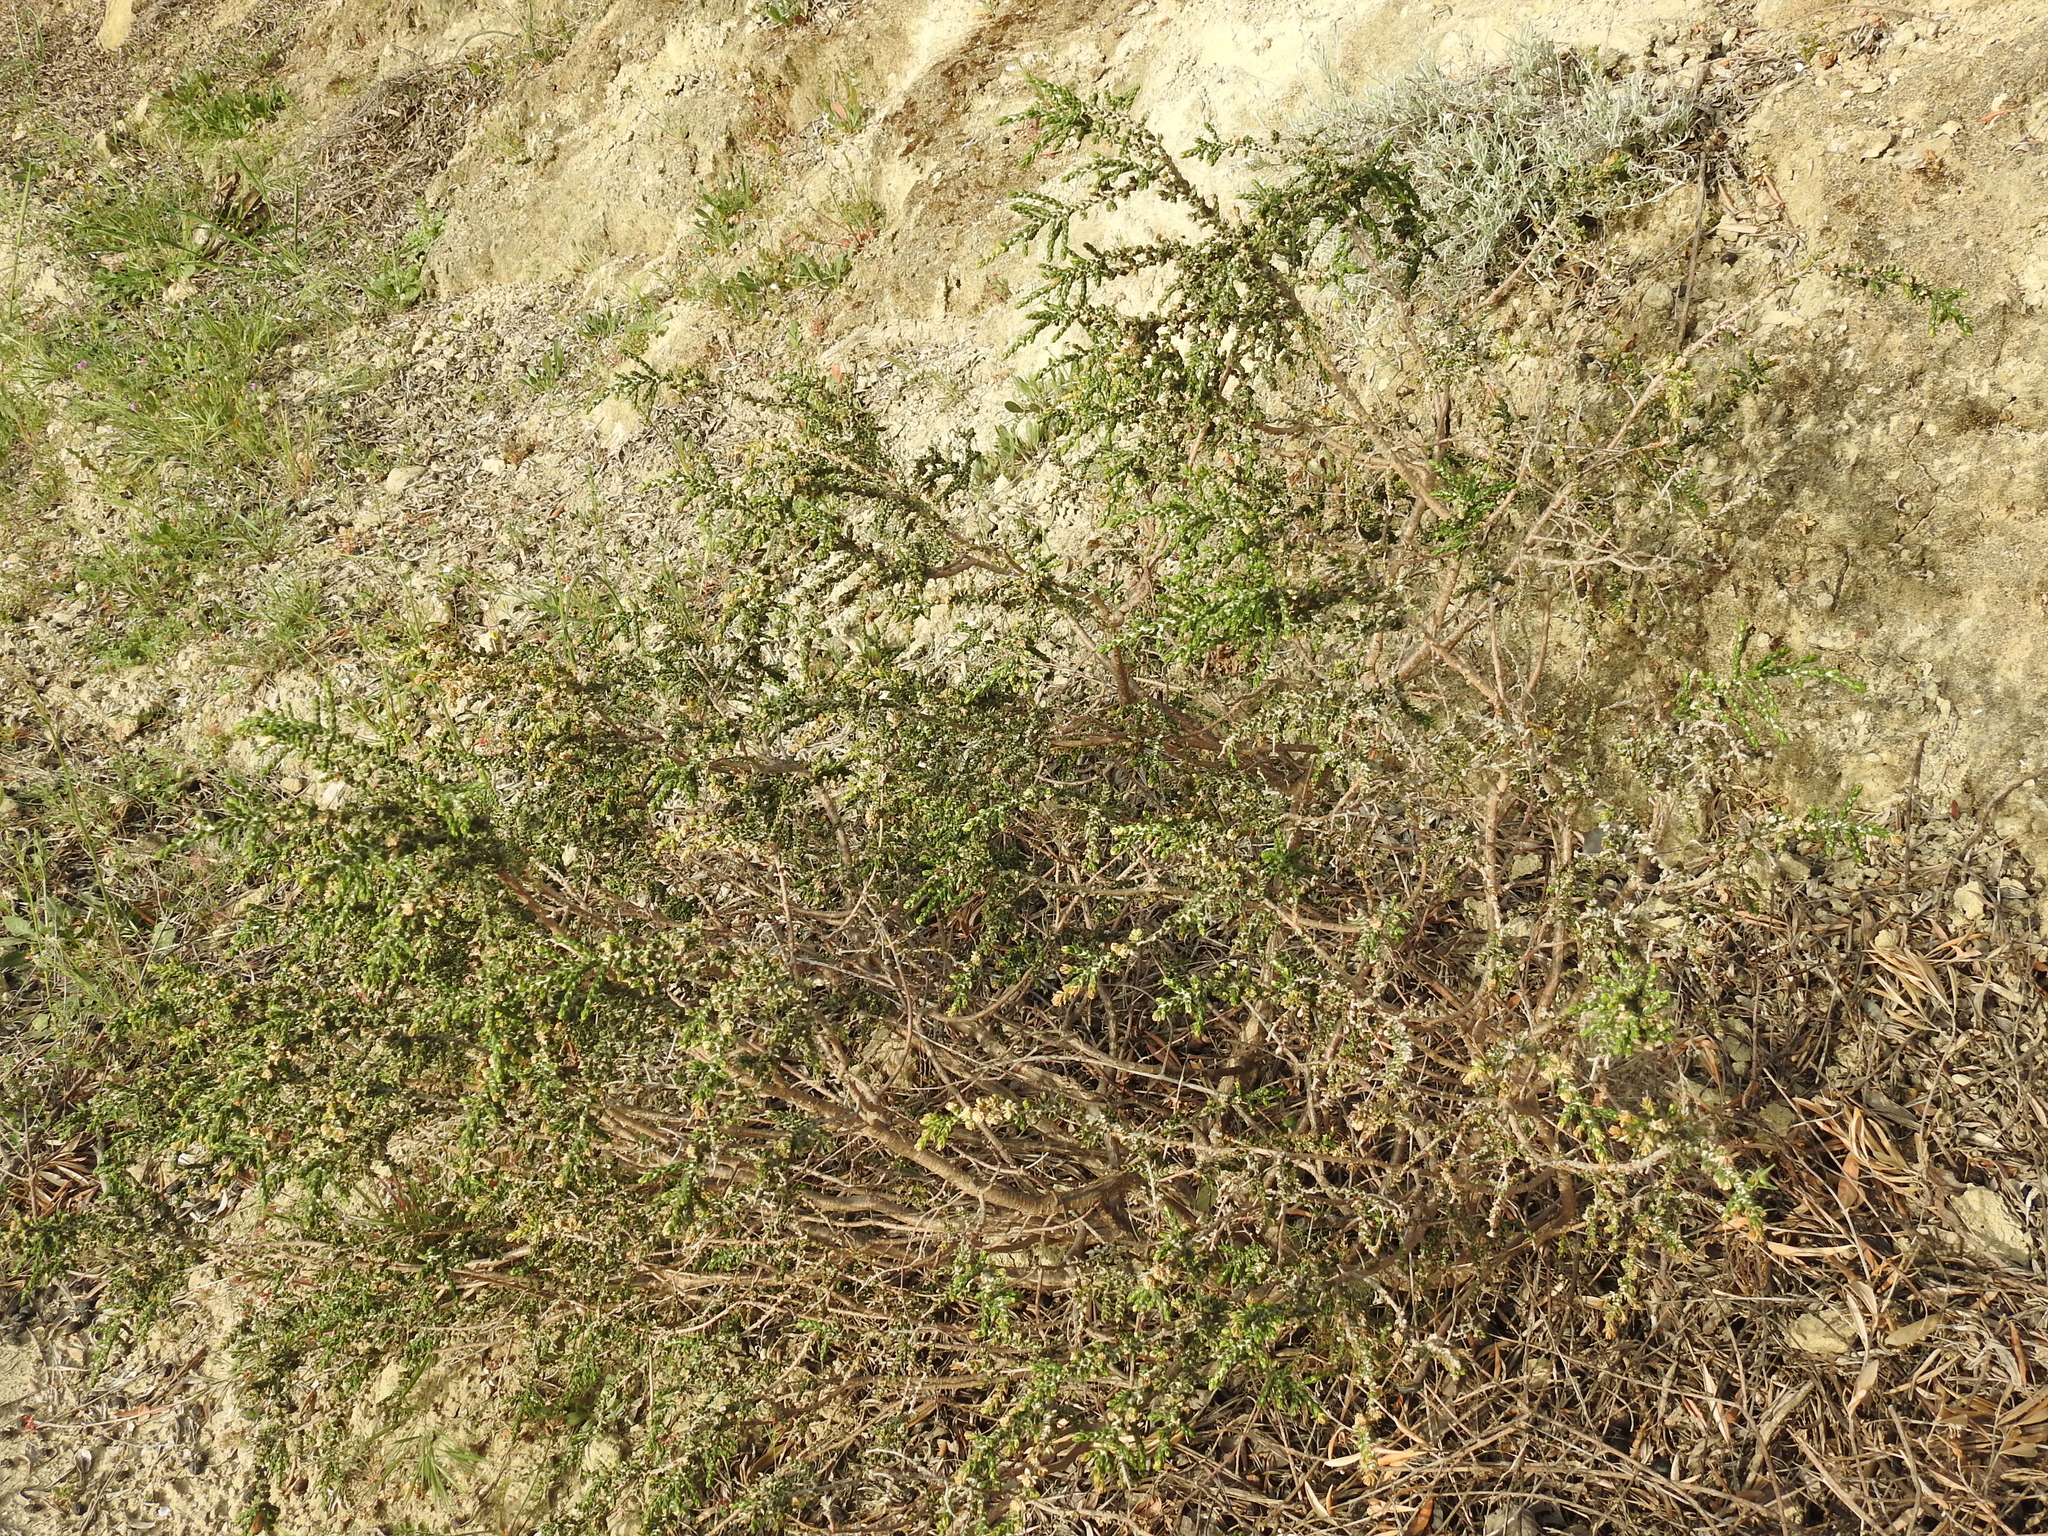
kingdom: Plantae
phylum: Tracheophyta
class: Magnoliopsida
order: Malvales
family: Thymelaeaceae
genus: Thymelaea
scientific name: Thymelaea hirsuta
